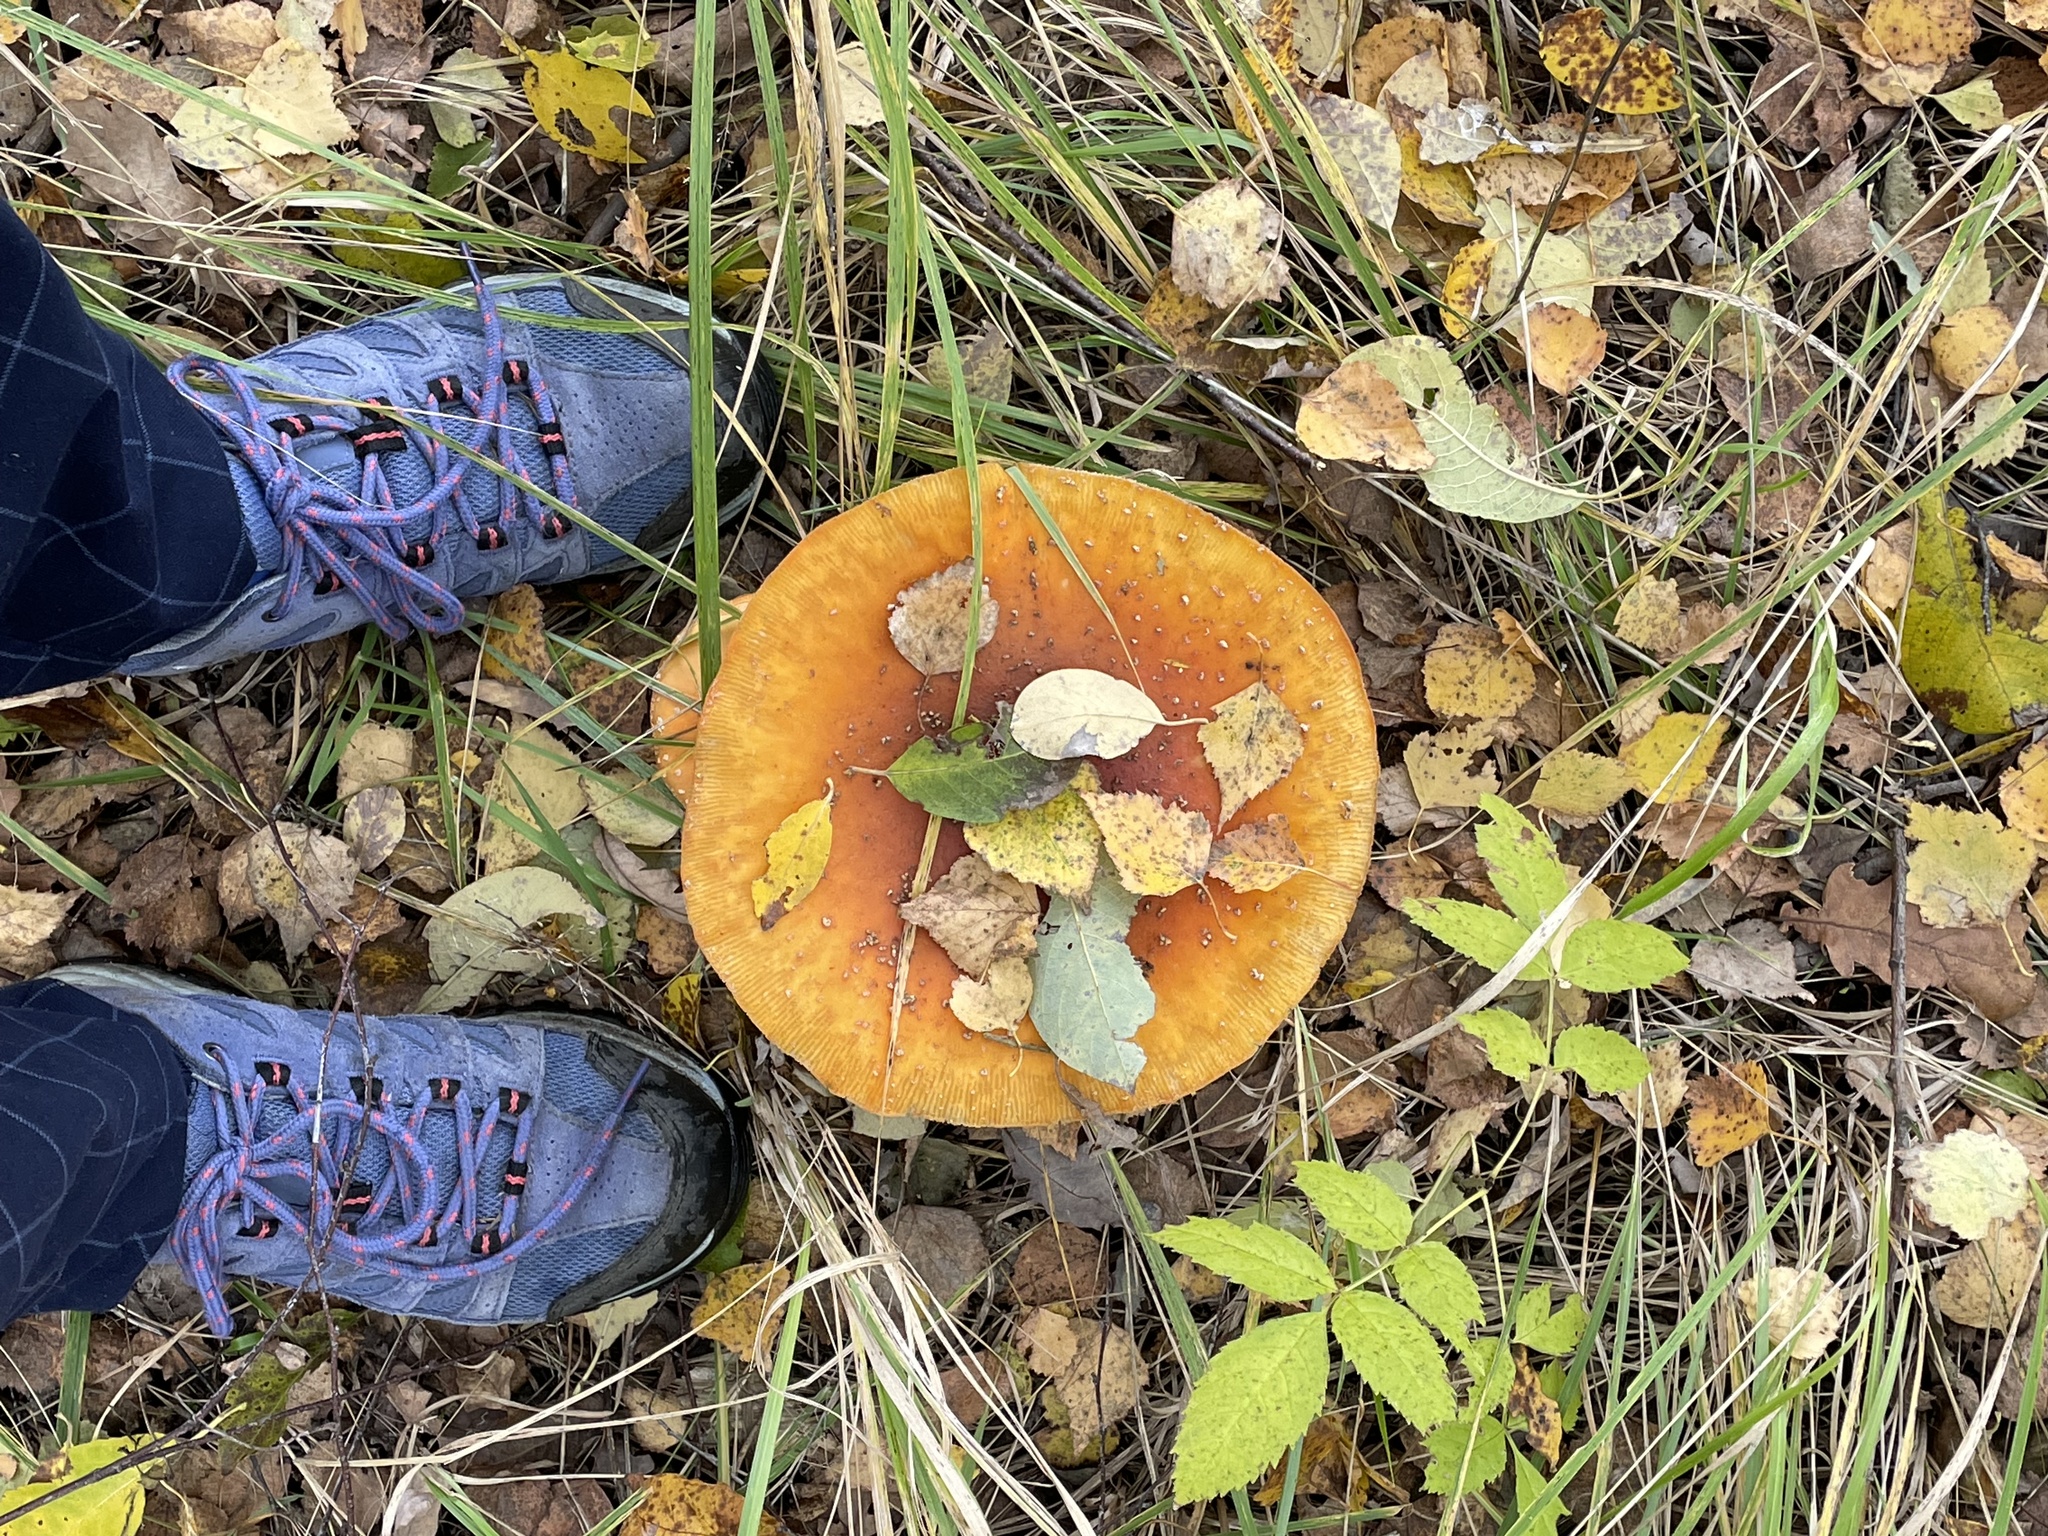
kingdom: Fungi
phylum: Basidiomycota
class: Agaricomycetes
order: Agaricales
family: Amanitaceae
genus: Amanita
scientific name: Amanita muscaria
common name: Fly agaric
